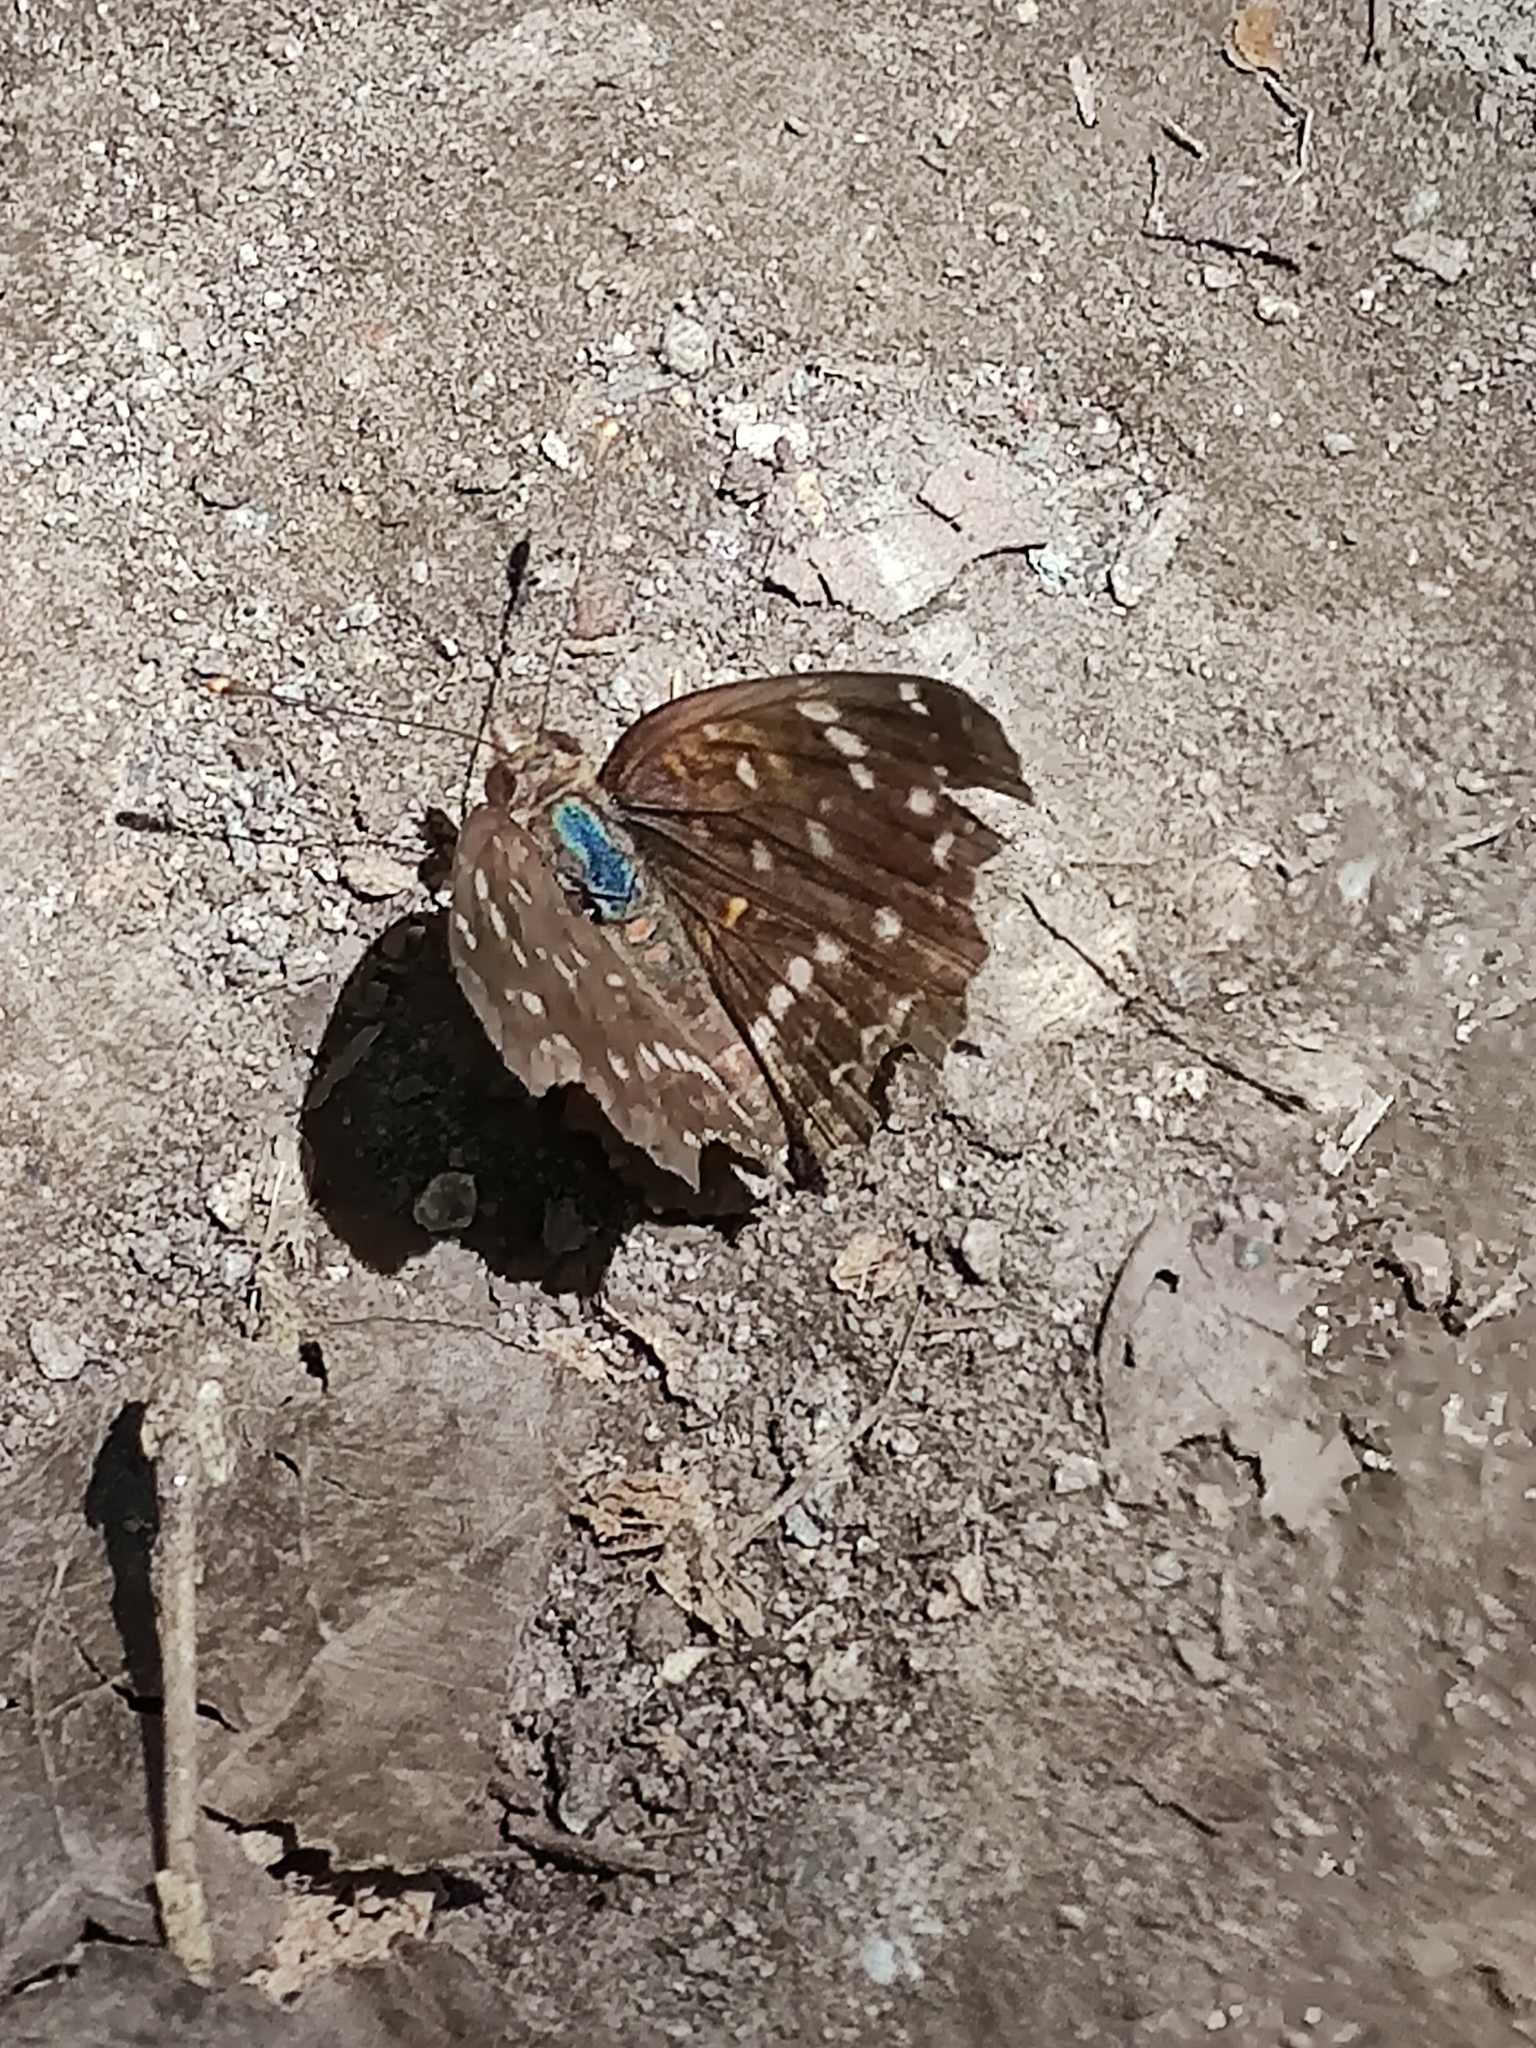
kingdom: Animalia
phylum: Arthropoda
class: Insecta
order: Lepidoptera
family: Nymphalidae
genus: Anthanassa
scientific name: Anthanassa texana
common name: Texan crescent
